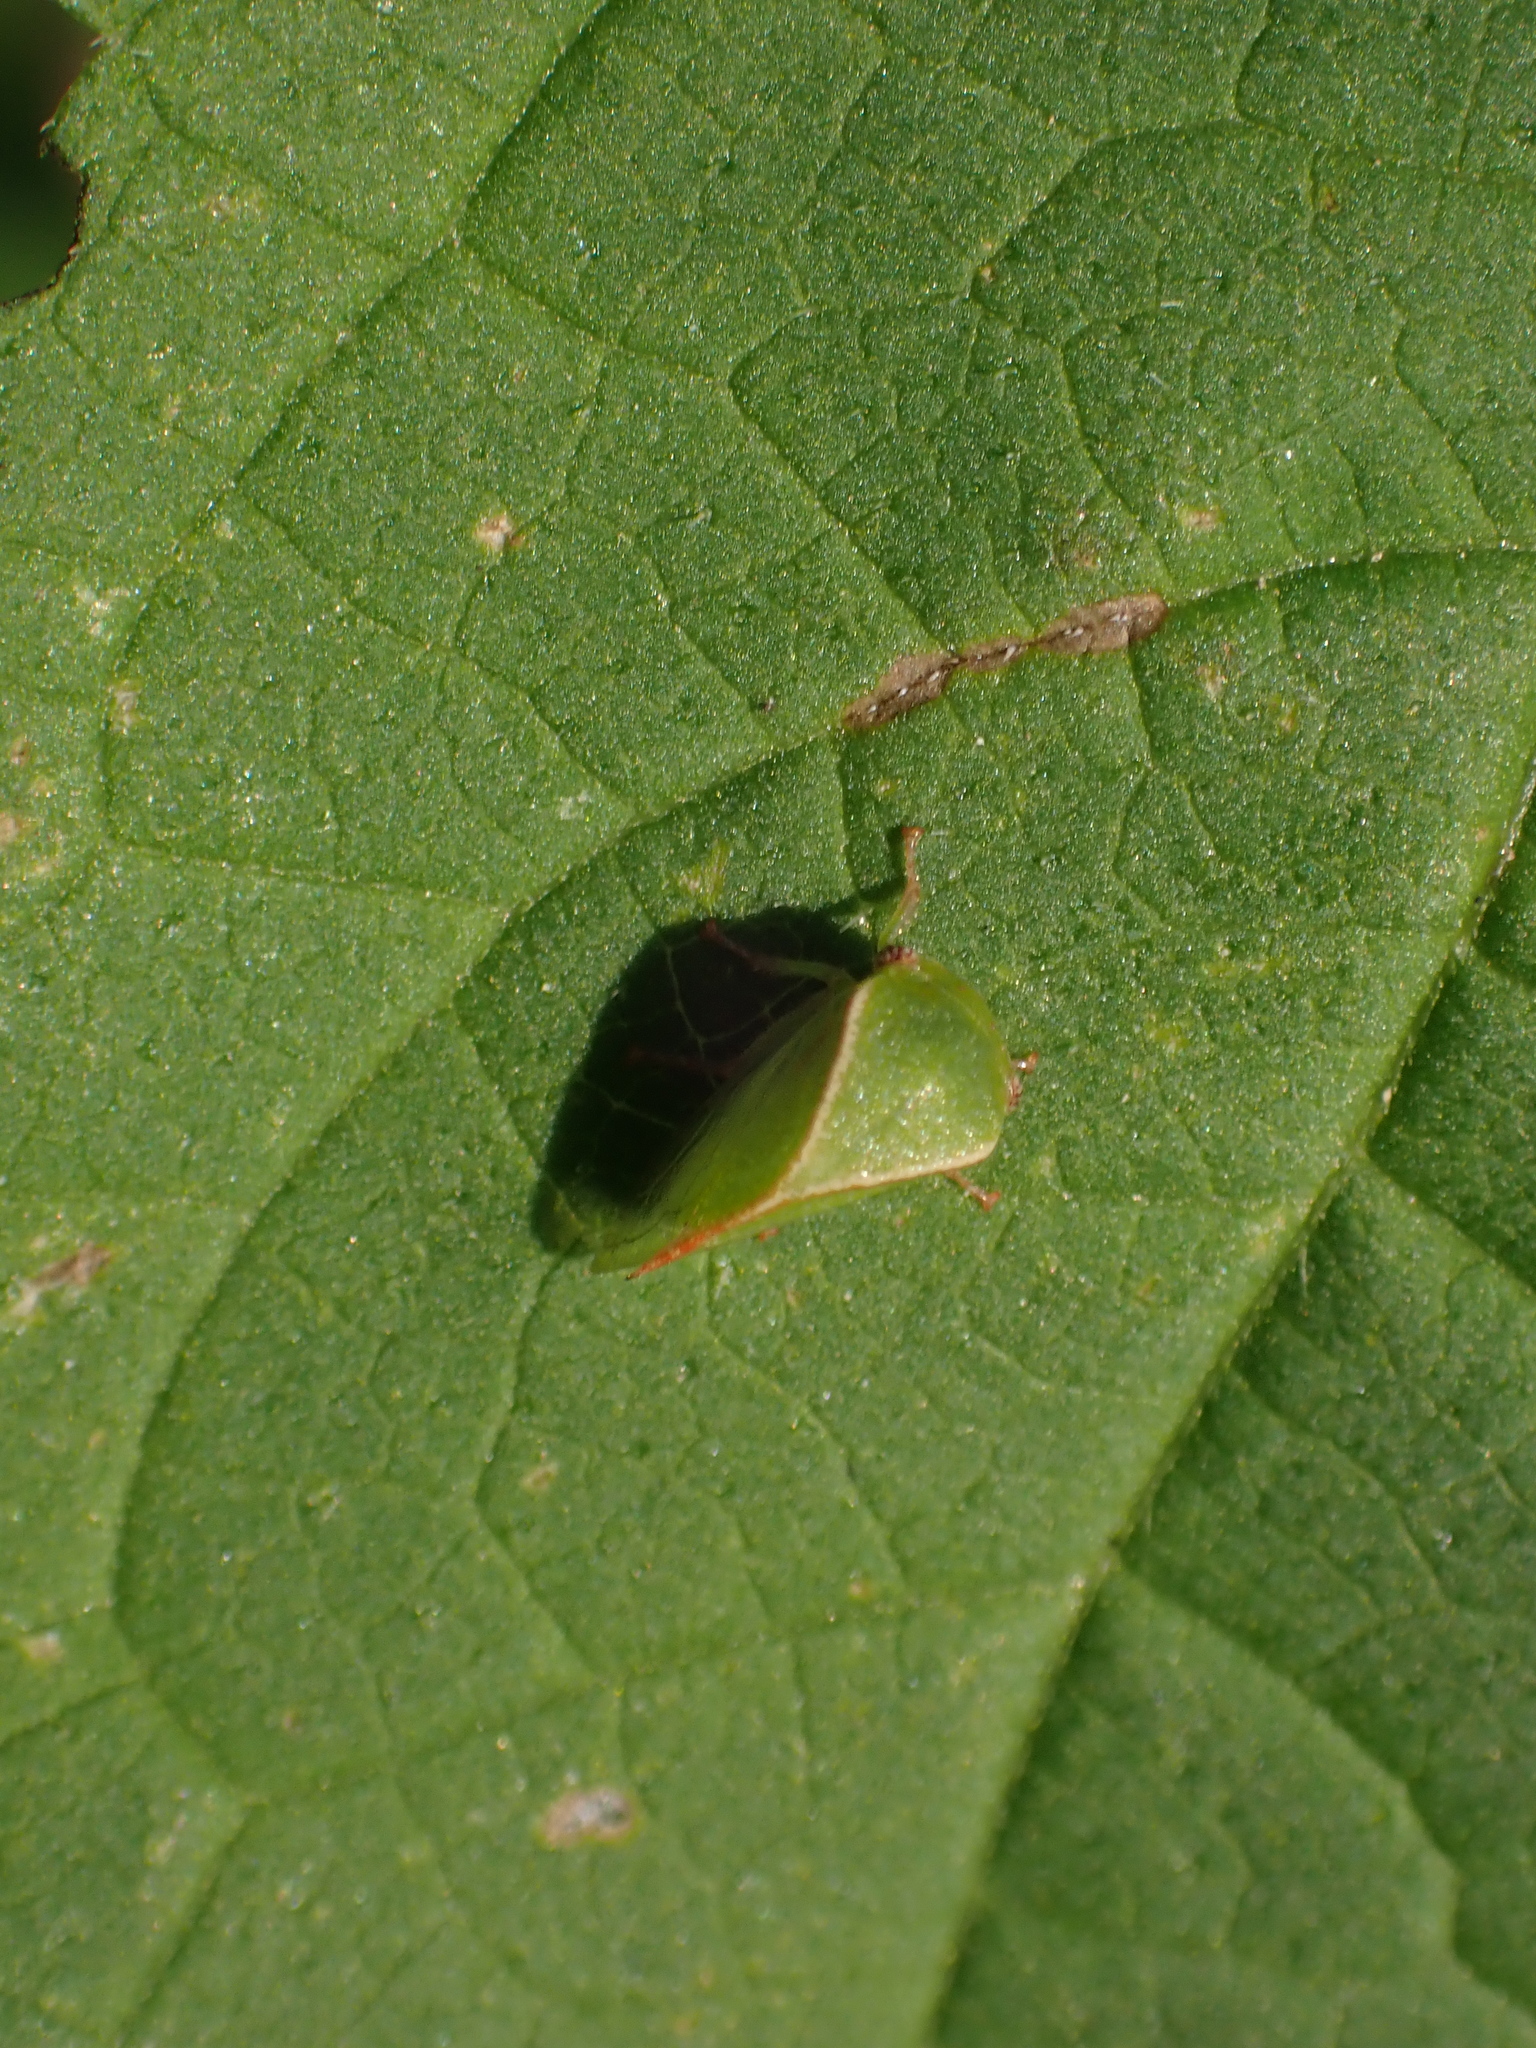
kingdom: Animalia
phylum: Arthropoda
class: Insecta
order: Hemiptera
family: Membracidae
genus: Spissistilus
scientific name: Spissistilus festina
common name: Membracid bug
